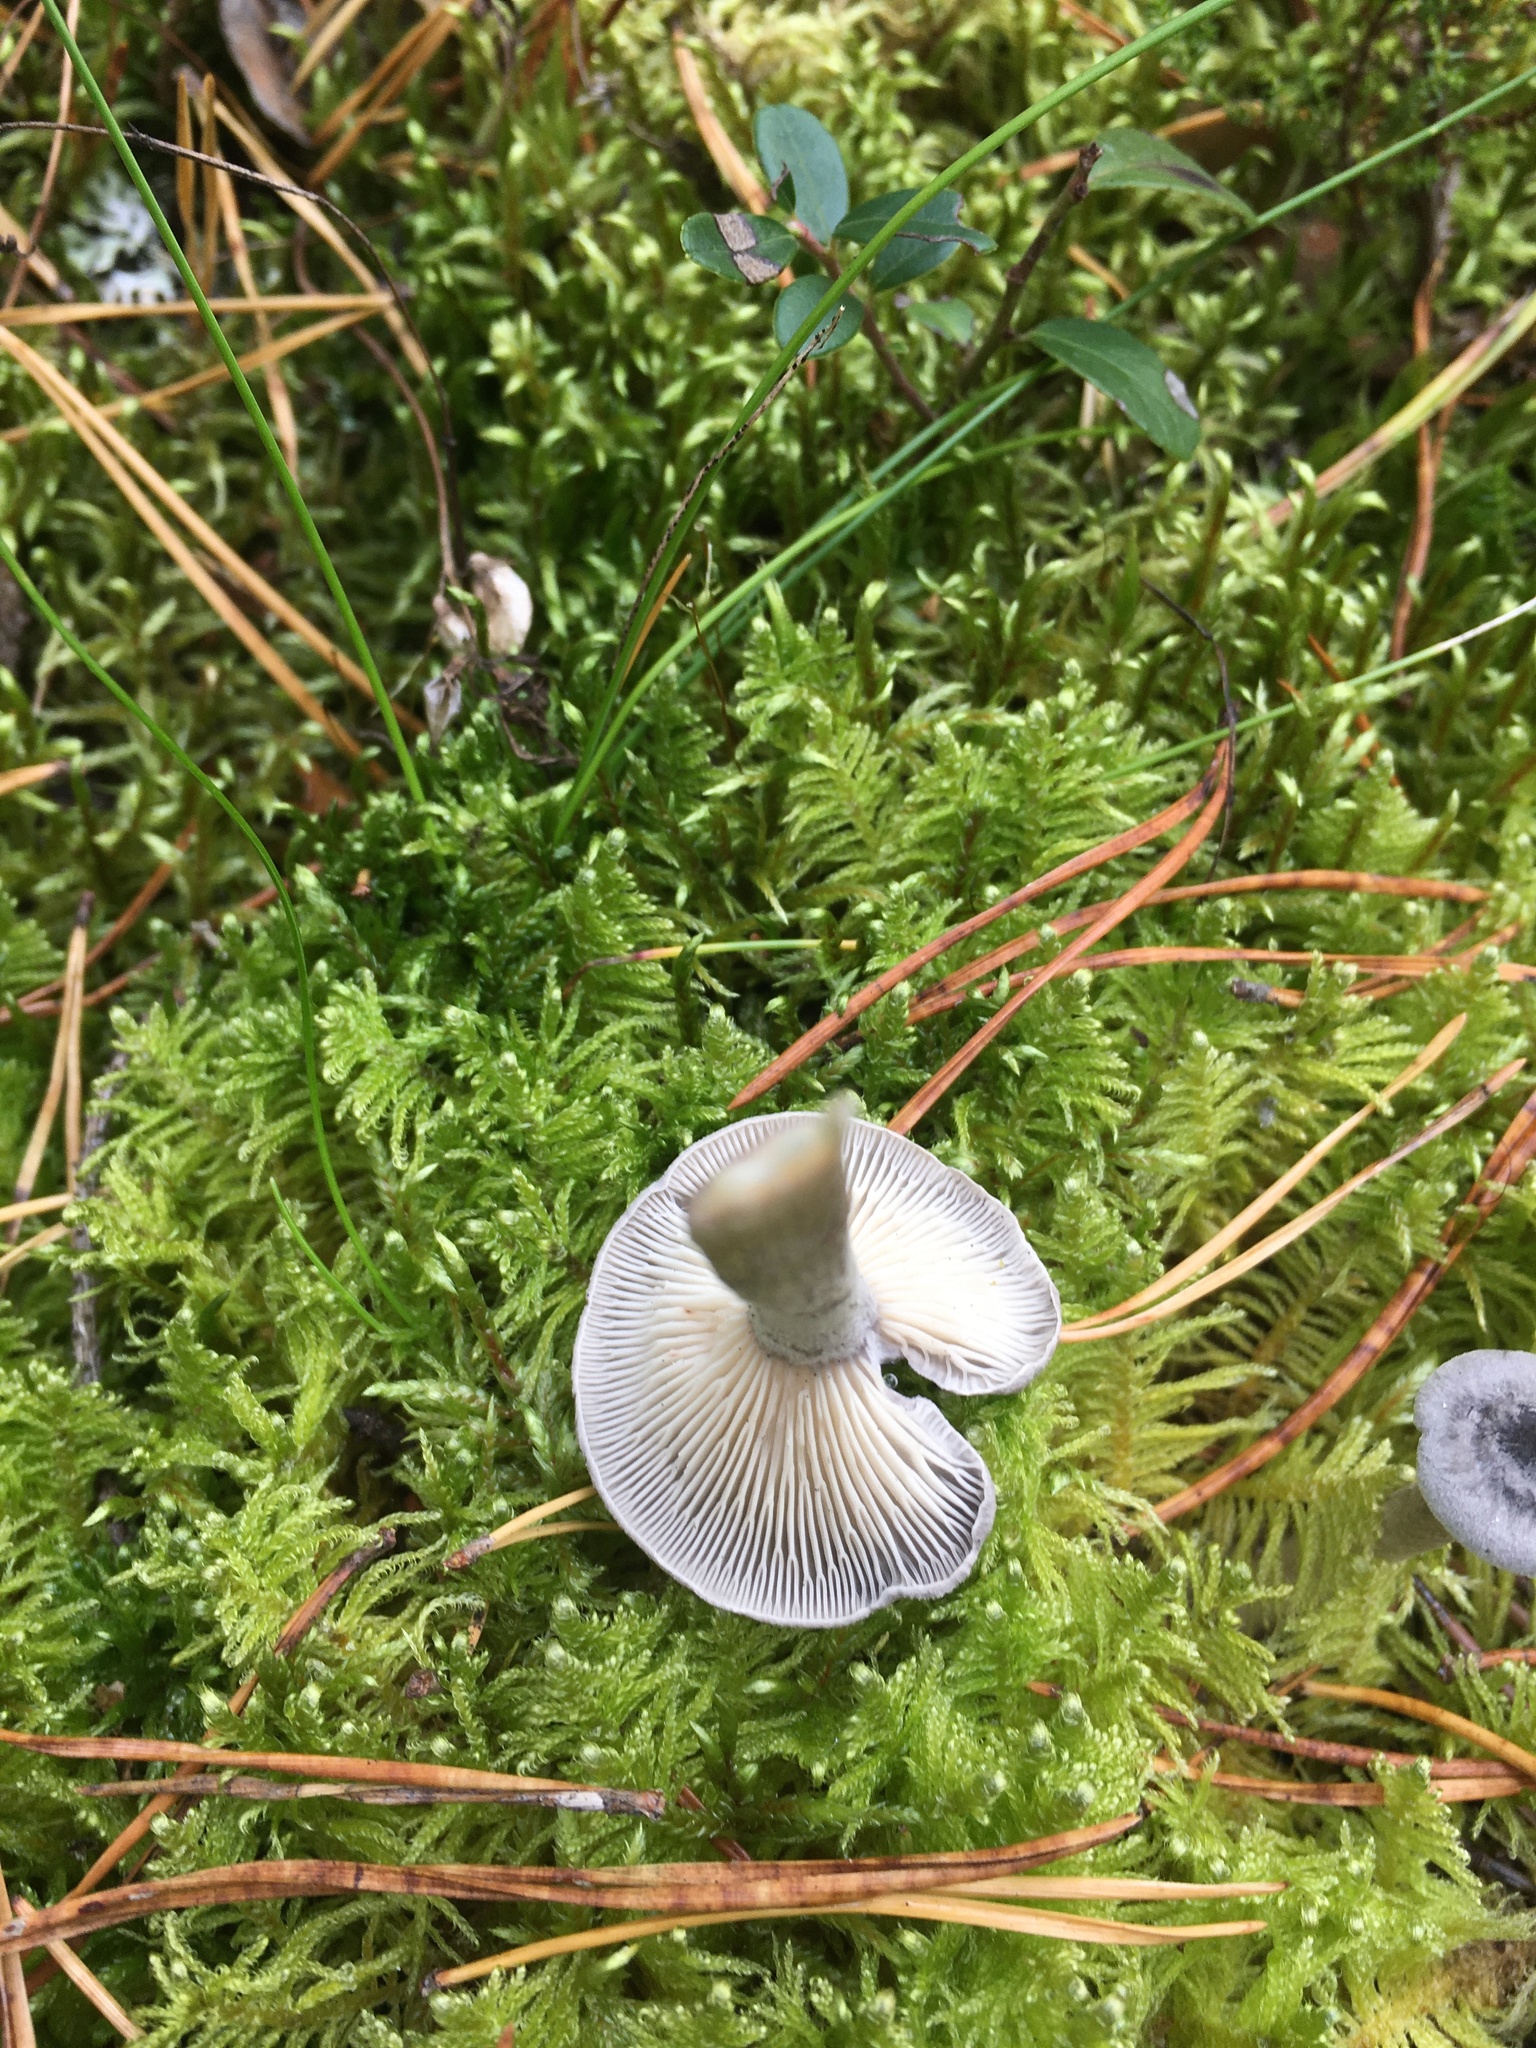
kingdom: Fungi
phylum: Basidiomycota
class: Agaricomycetes
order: Agaricales
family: Hygrophoraceae
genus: Cantharellula
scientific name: Cantharellula umbonata
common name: The humpback
